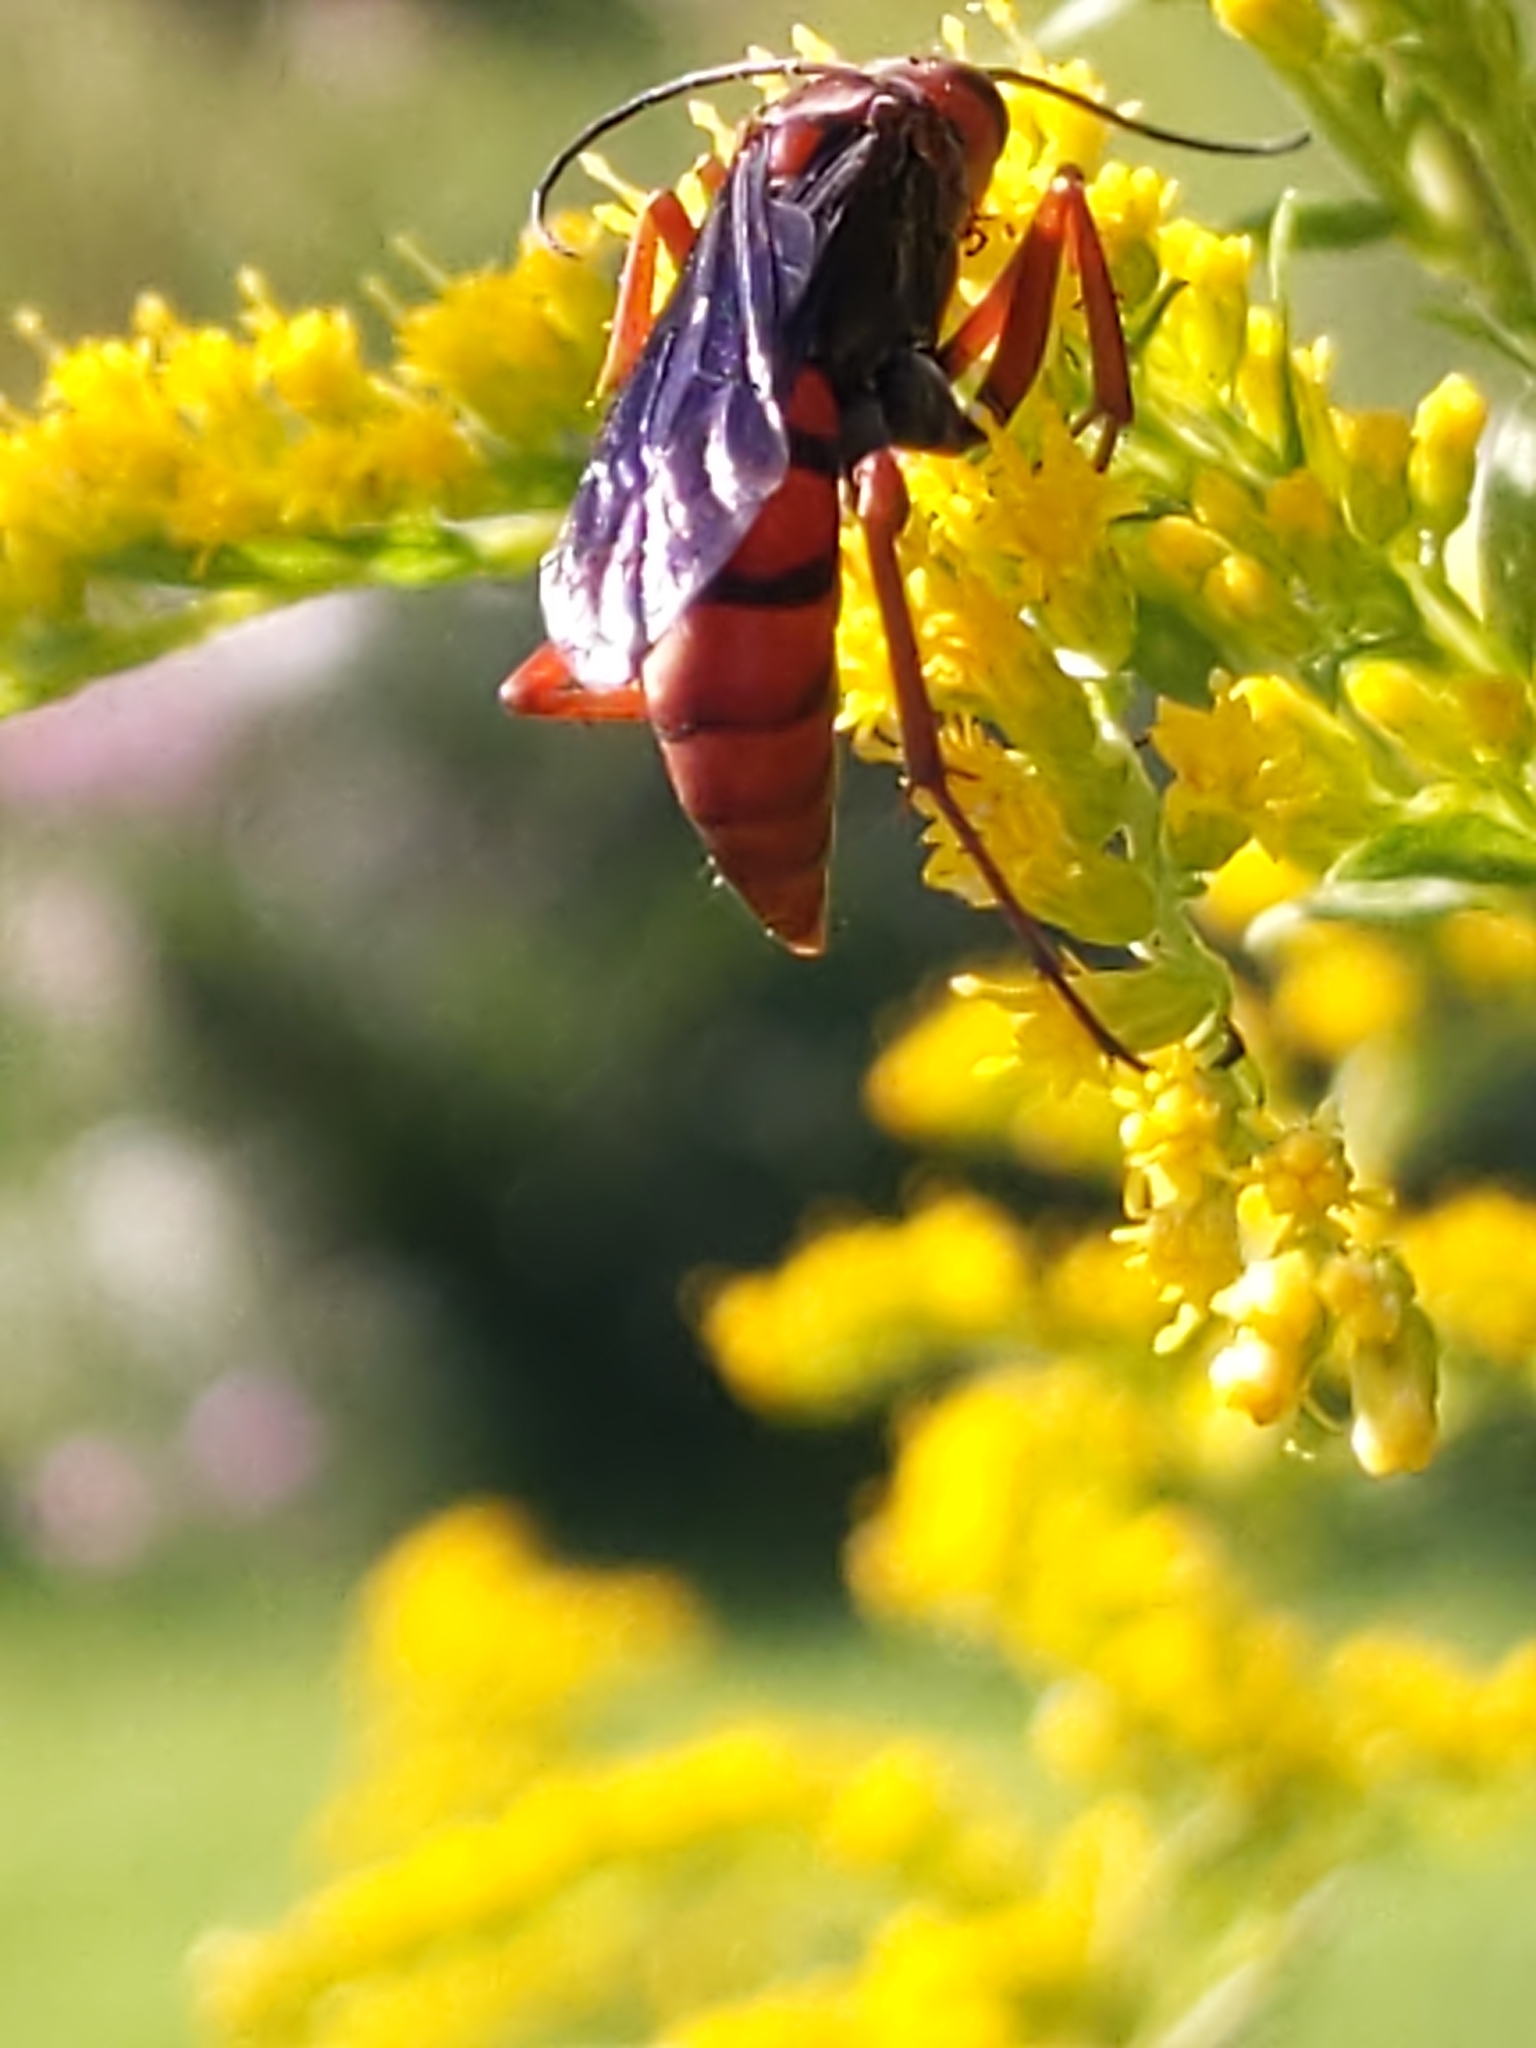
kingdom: Animalia
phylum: Arthropoda
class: Insecta
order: Hymenoptera
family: Pompilidae
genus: Tachypompilus
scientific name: Tachypompilus ferrugineus
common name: Rusty spider wasp
